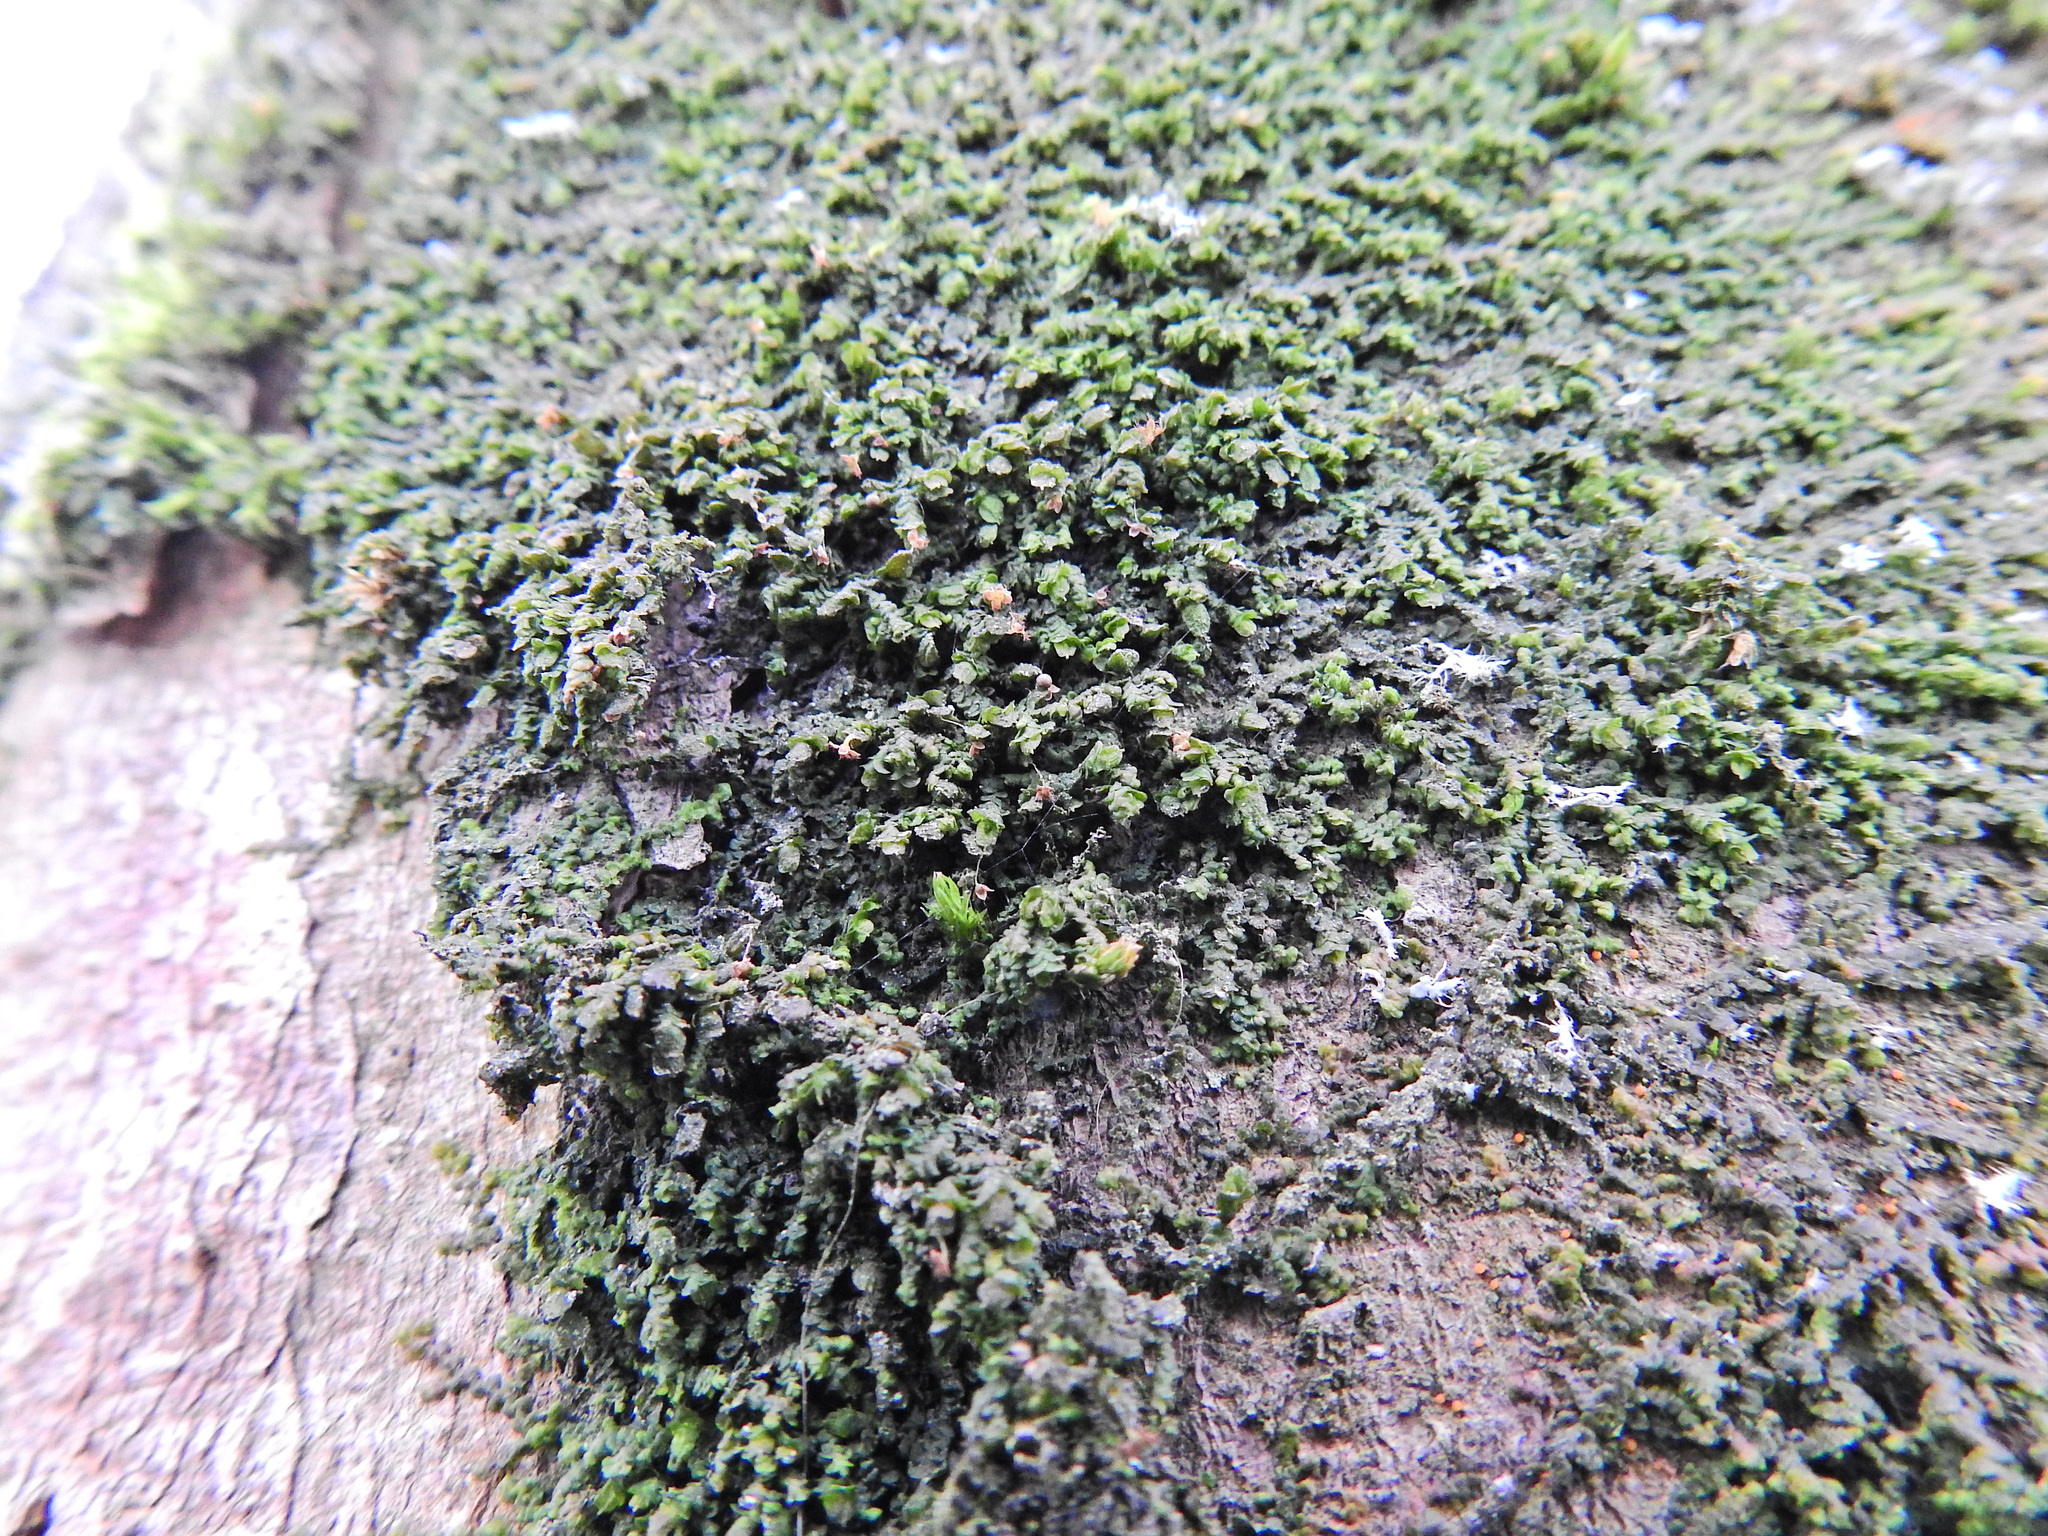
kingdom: Plantae
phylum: Marchantiophyta
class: Jungermanniopsida
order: Porellales
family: Frullaniaceae
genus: Frullania
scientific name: Frullania dilatata
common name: Dilated scalewort
